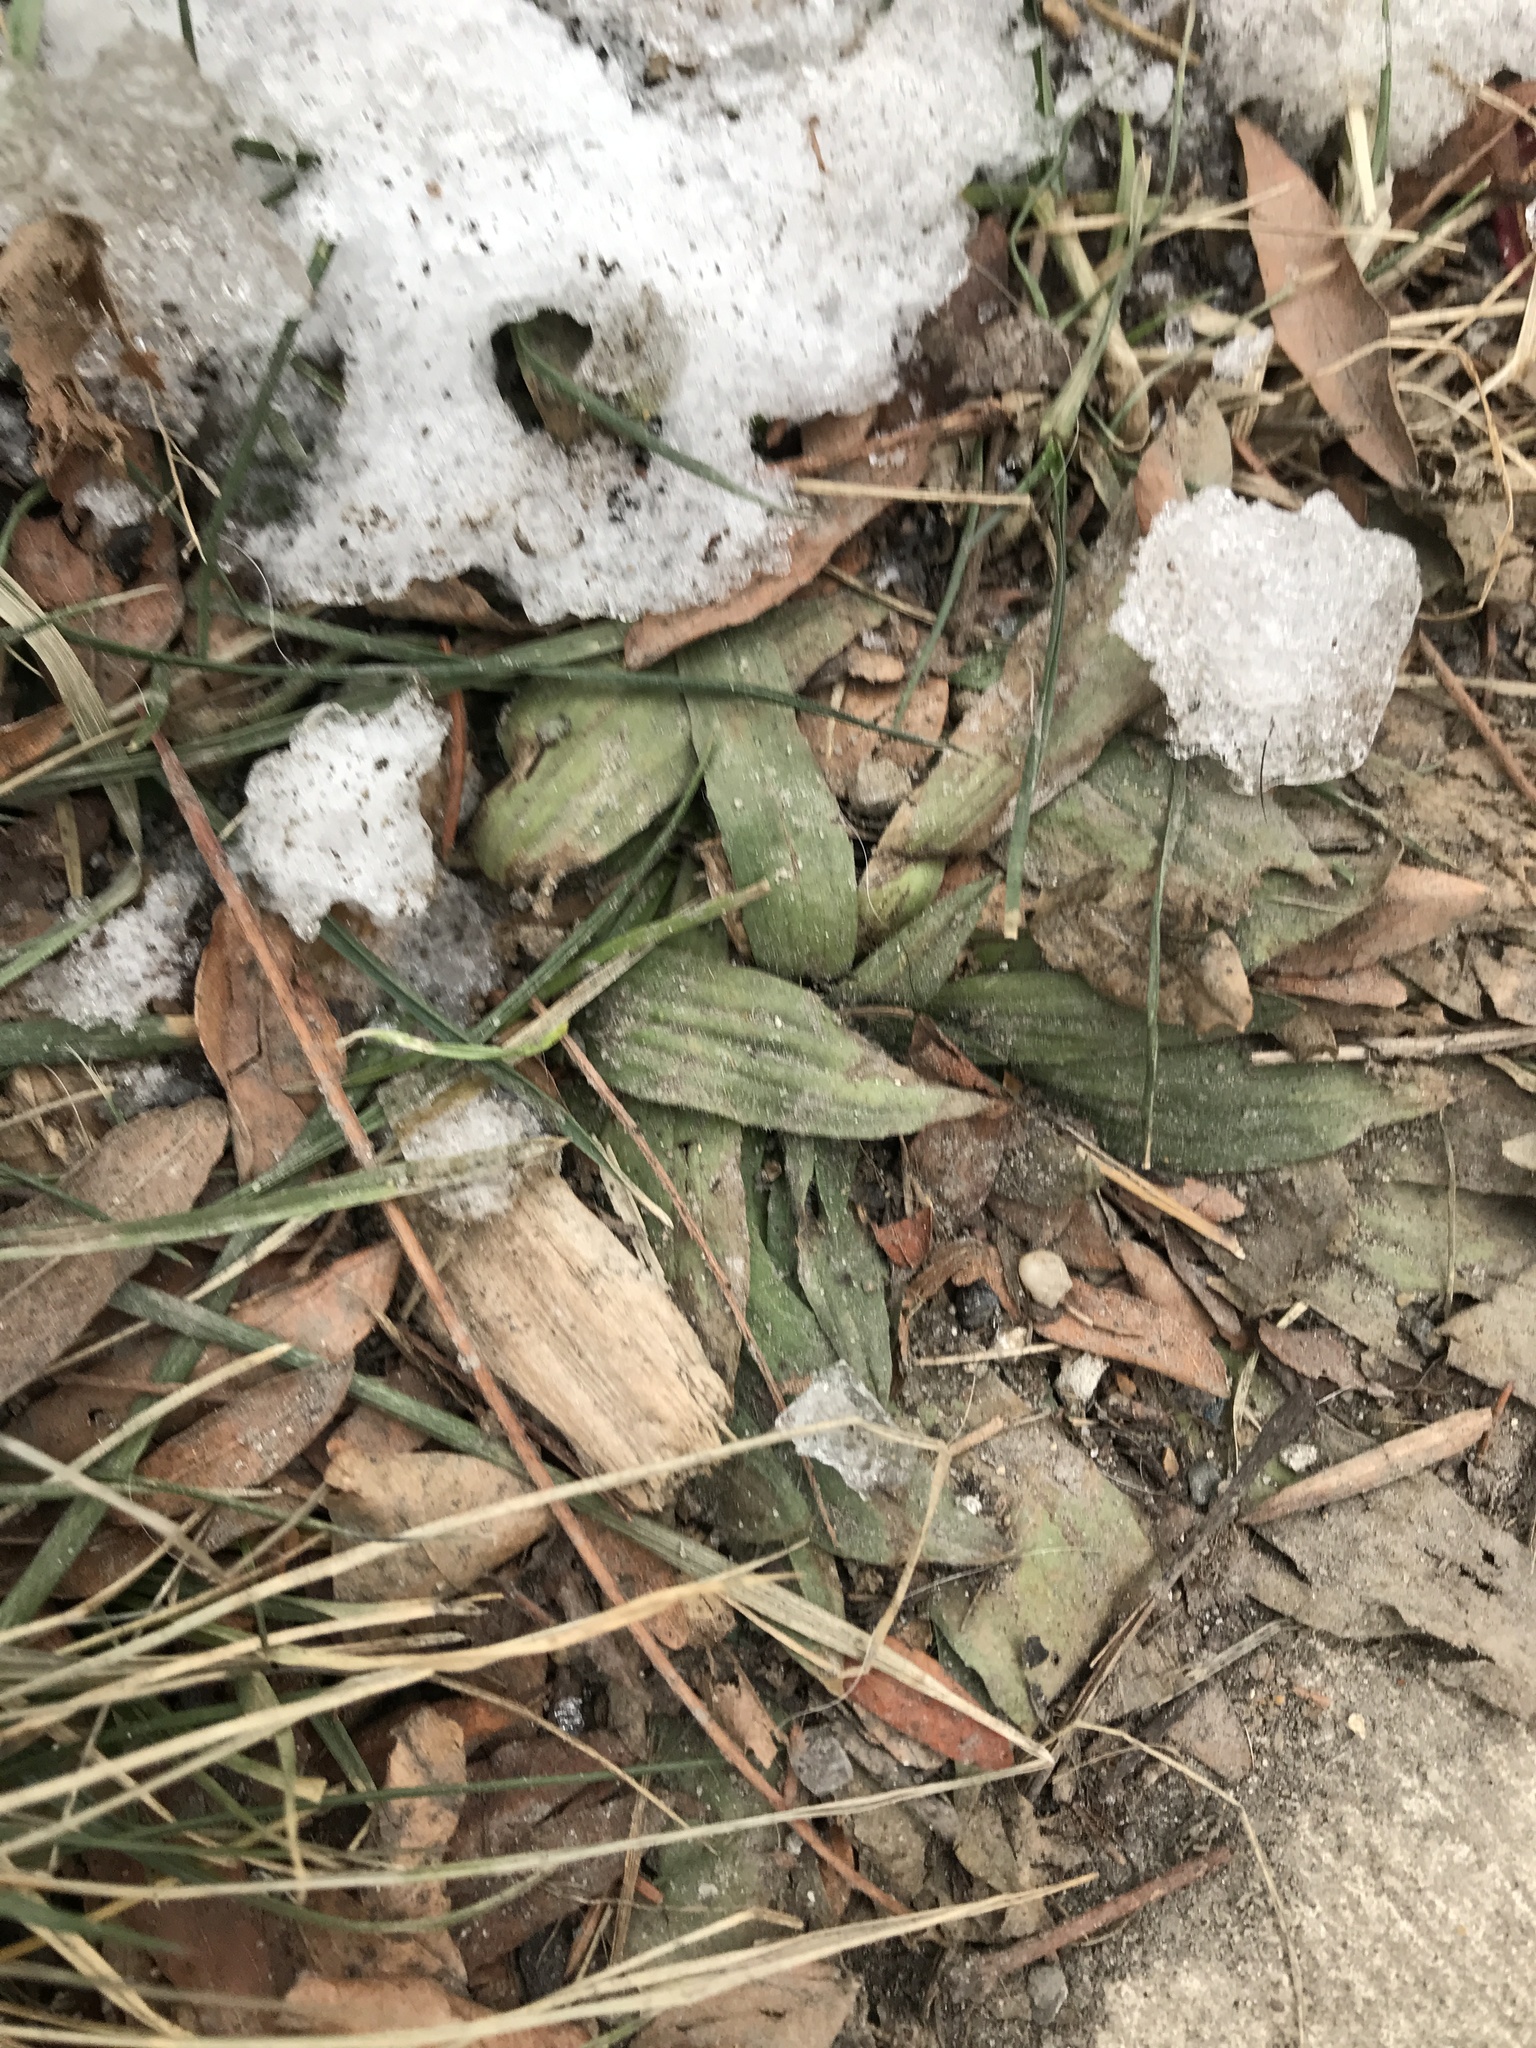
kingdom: Plantae
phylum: Tracheophyta
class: Magnoliopsida
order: Lamiales
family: Plantaginaceae
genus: Plantago
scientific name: Plantago lanceolata
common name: Ribwort plantain
